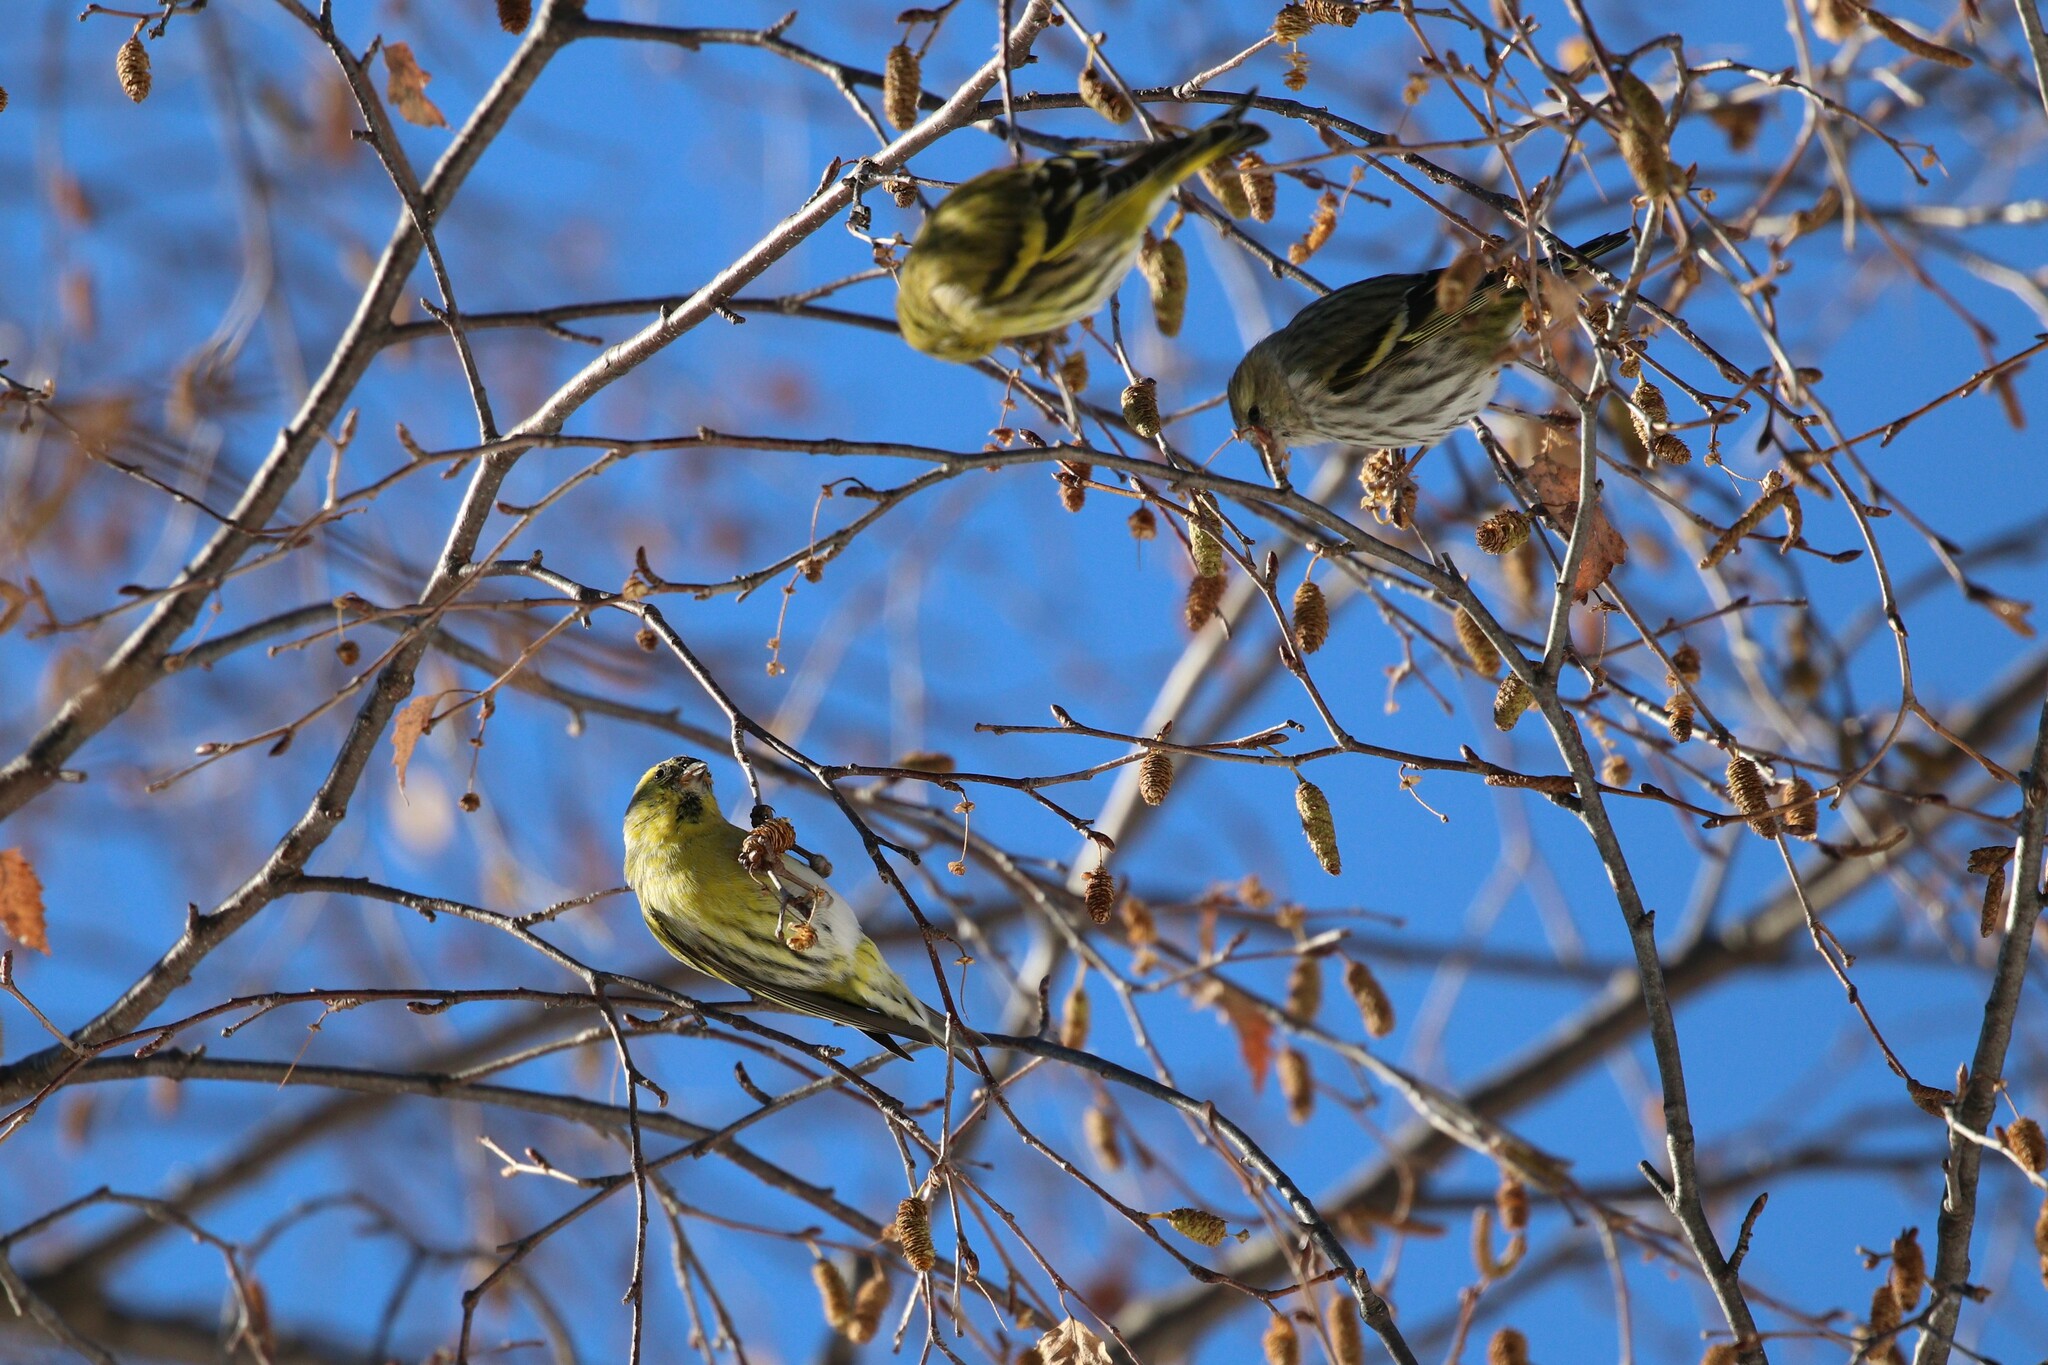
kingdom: Animalia
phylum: Chordata
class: Aves
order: Passeriformes
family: Fringillidae
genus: Spinus
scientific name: Spinus spinus
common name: Eurasian siskin
